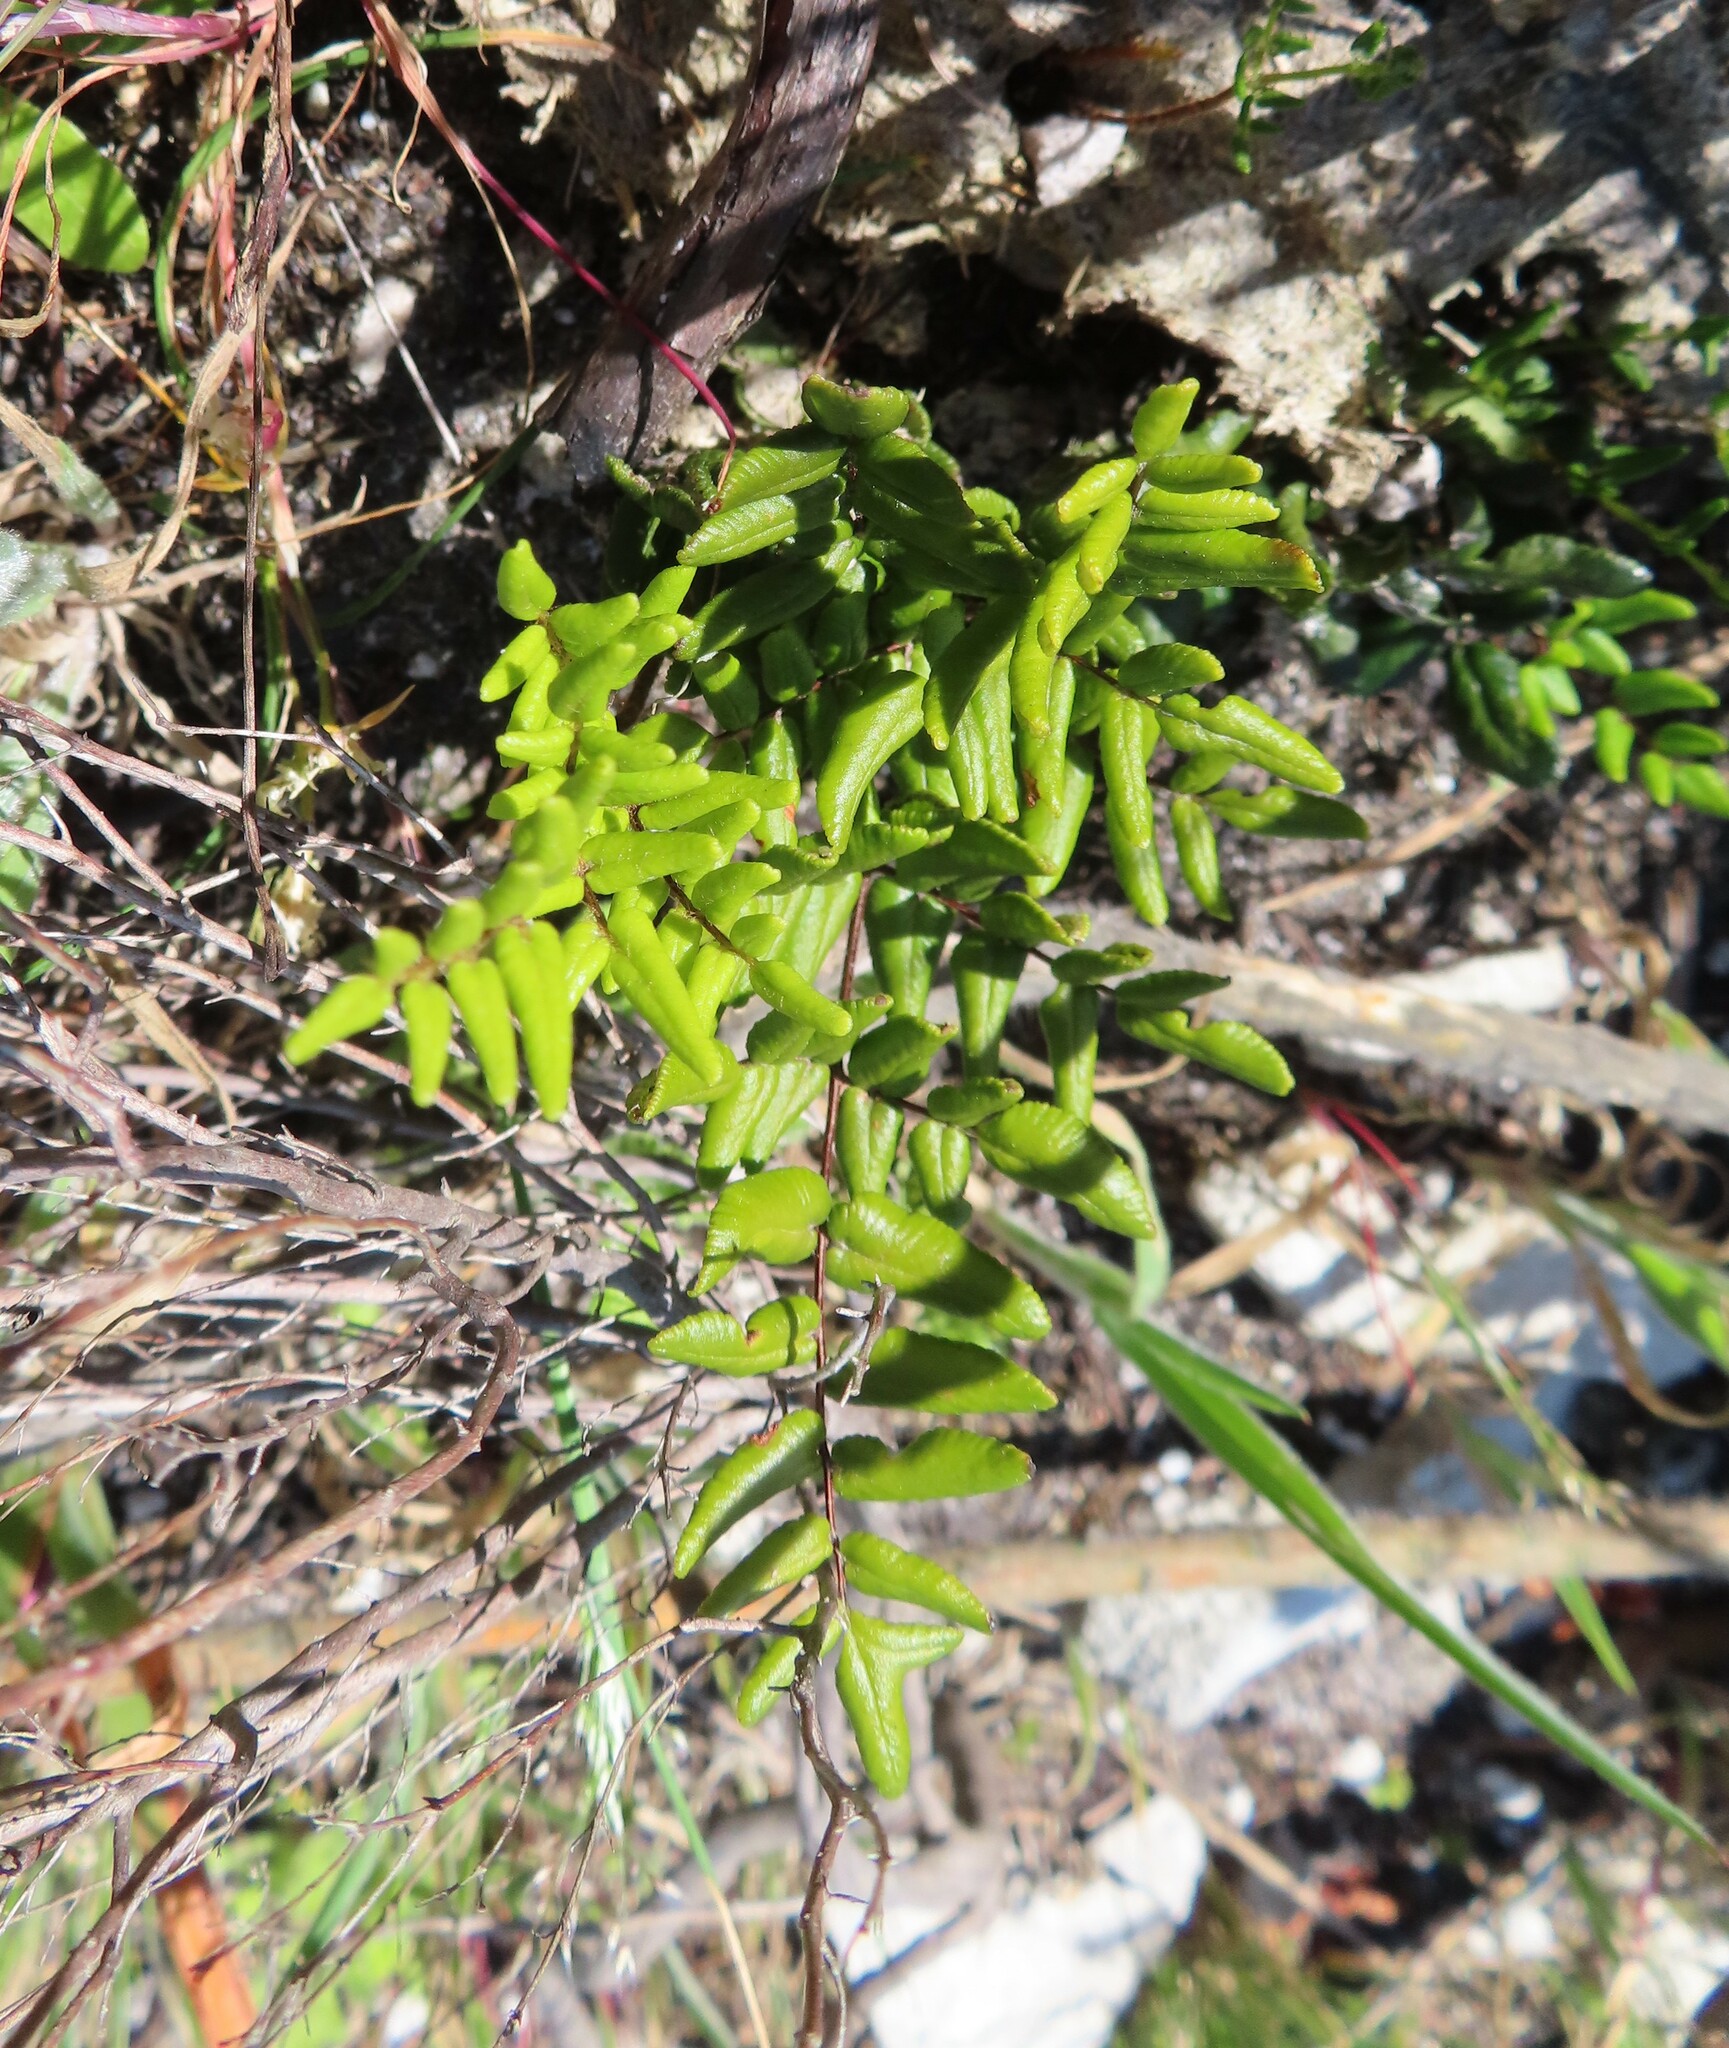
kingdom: Plantae
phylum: Tracheophyta
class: Polypodiopsida
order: Polypodiales
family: Pteridaceae
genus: Pellaea
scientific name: Pellaea pteroides
